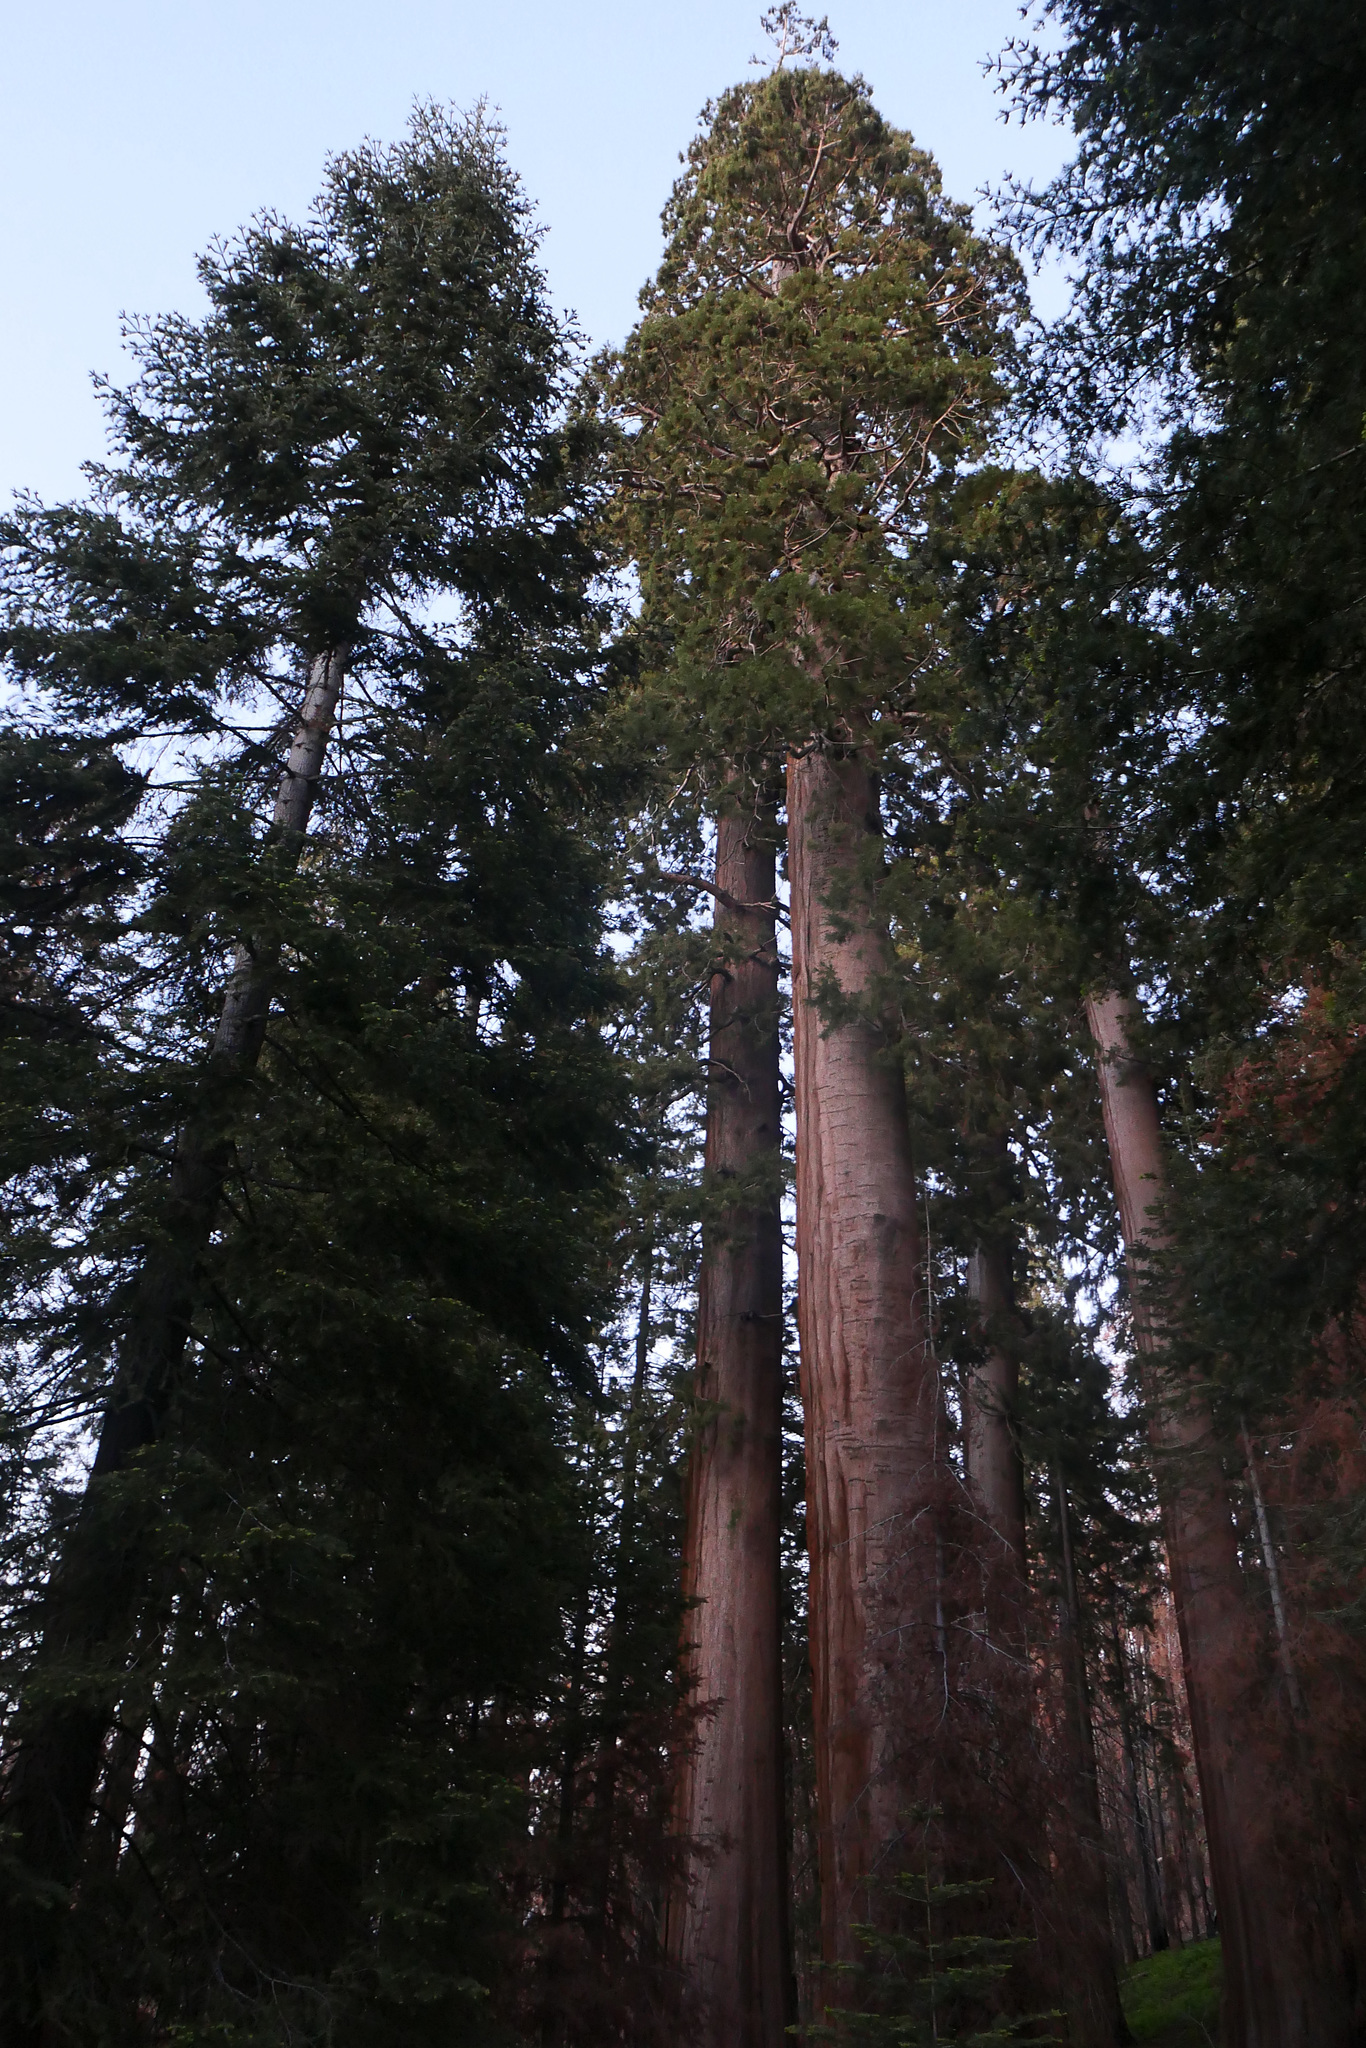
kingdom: Plantae
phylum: Tracheophyta
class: Pinopsida
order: Pinales
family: Cupressaceae
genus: Sequoiadendron
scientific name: Sequoiadendron giganteum
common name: Wellingtonia
